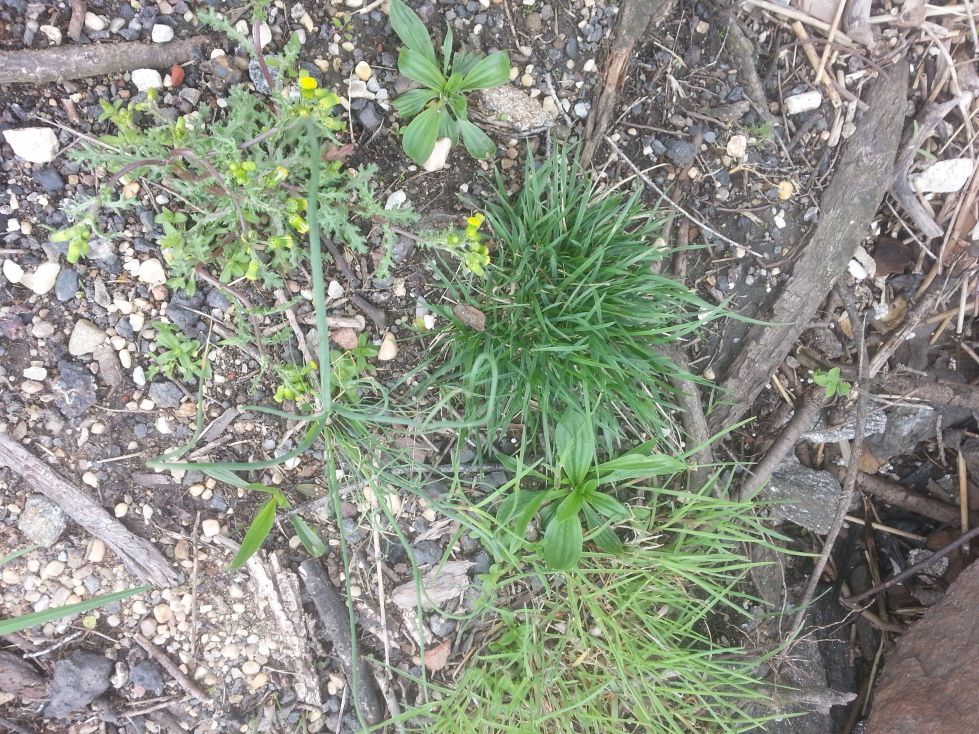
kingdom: Plantae
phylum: Tracheophyta
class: Magnoliopsida
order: Asterales
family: Asteraceae
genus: Senecio
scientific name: Senecio vulgaris
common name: Old-man-in-the-spring
